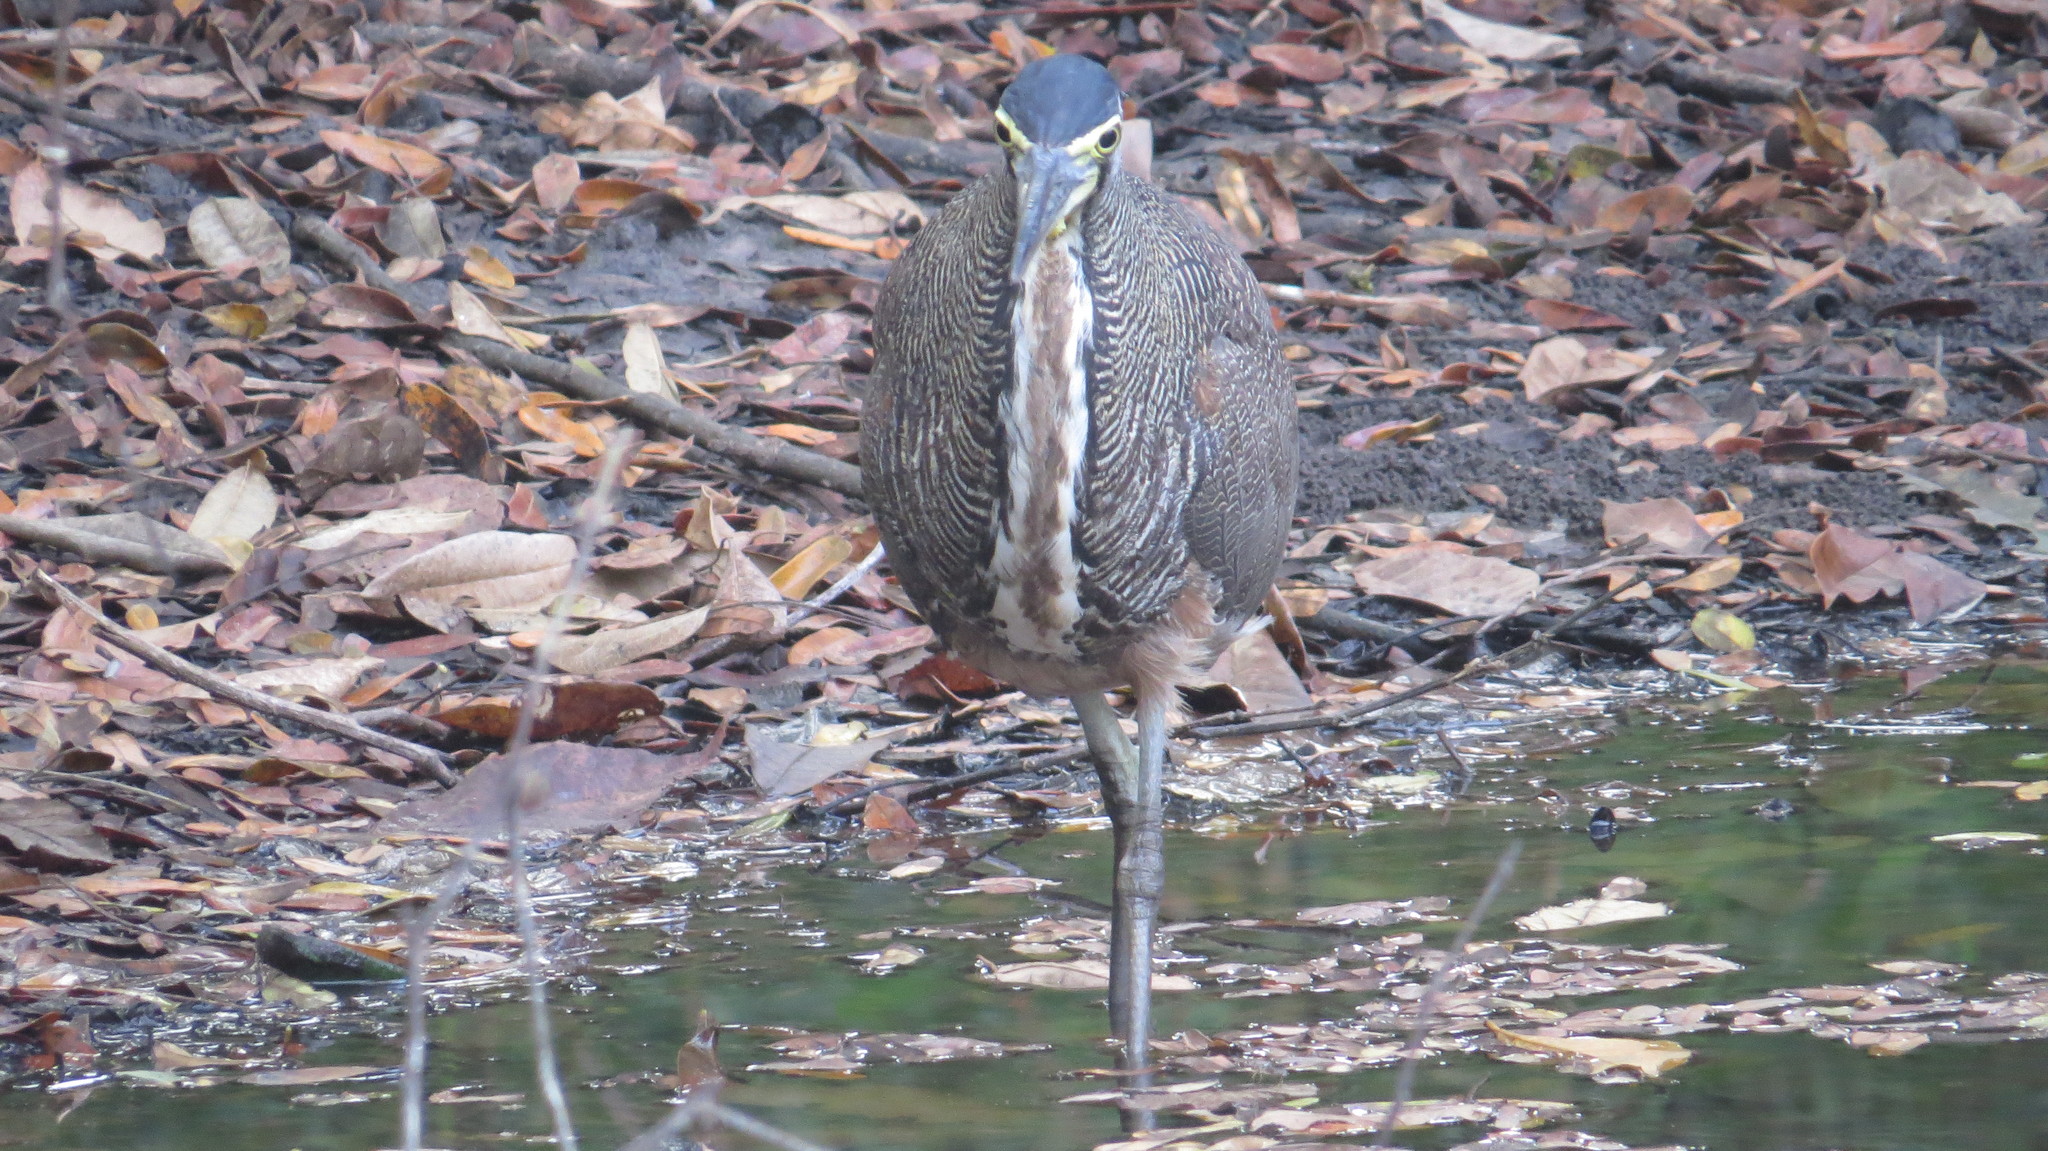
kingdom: Animalia
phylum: Chordata
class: Aves
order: Pelecaniformes
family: Ardeidae
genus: Tigrisoma
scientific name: Tigrisoma mexicanum
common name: Bare-throated tiger-heron
